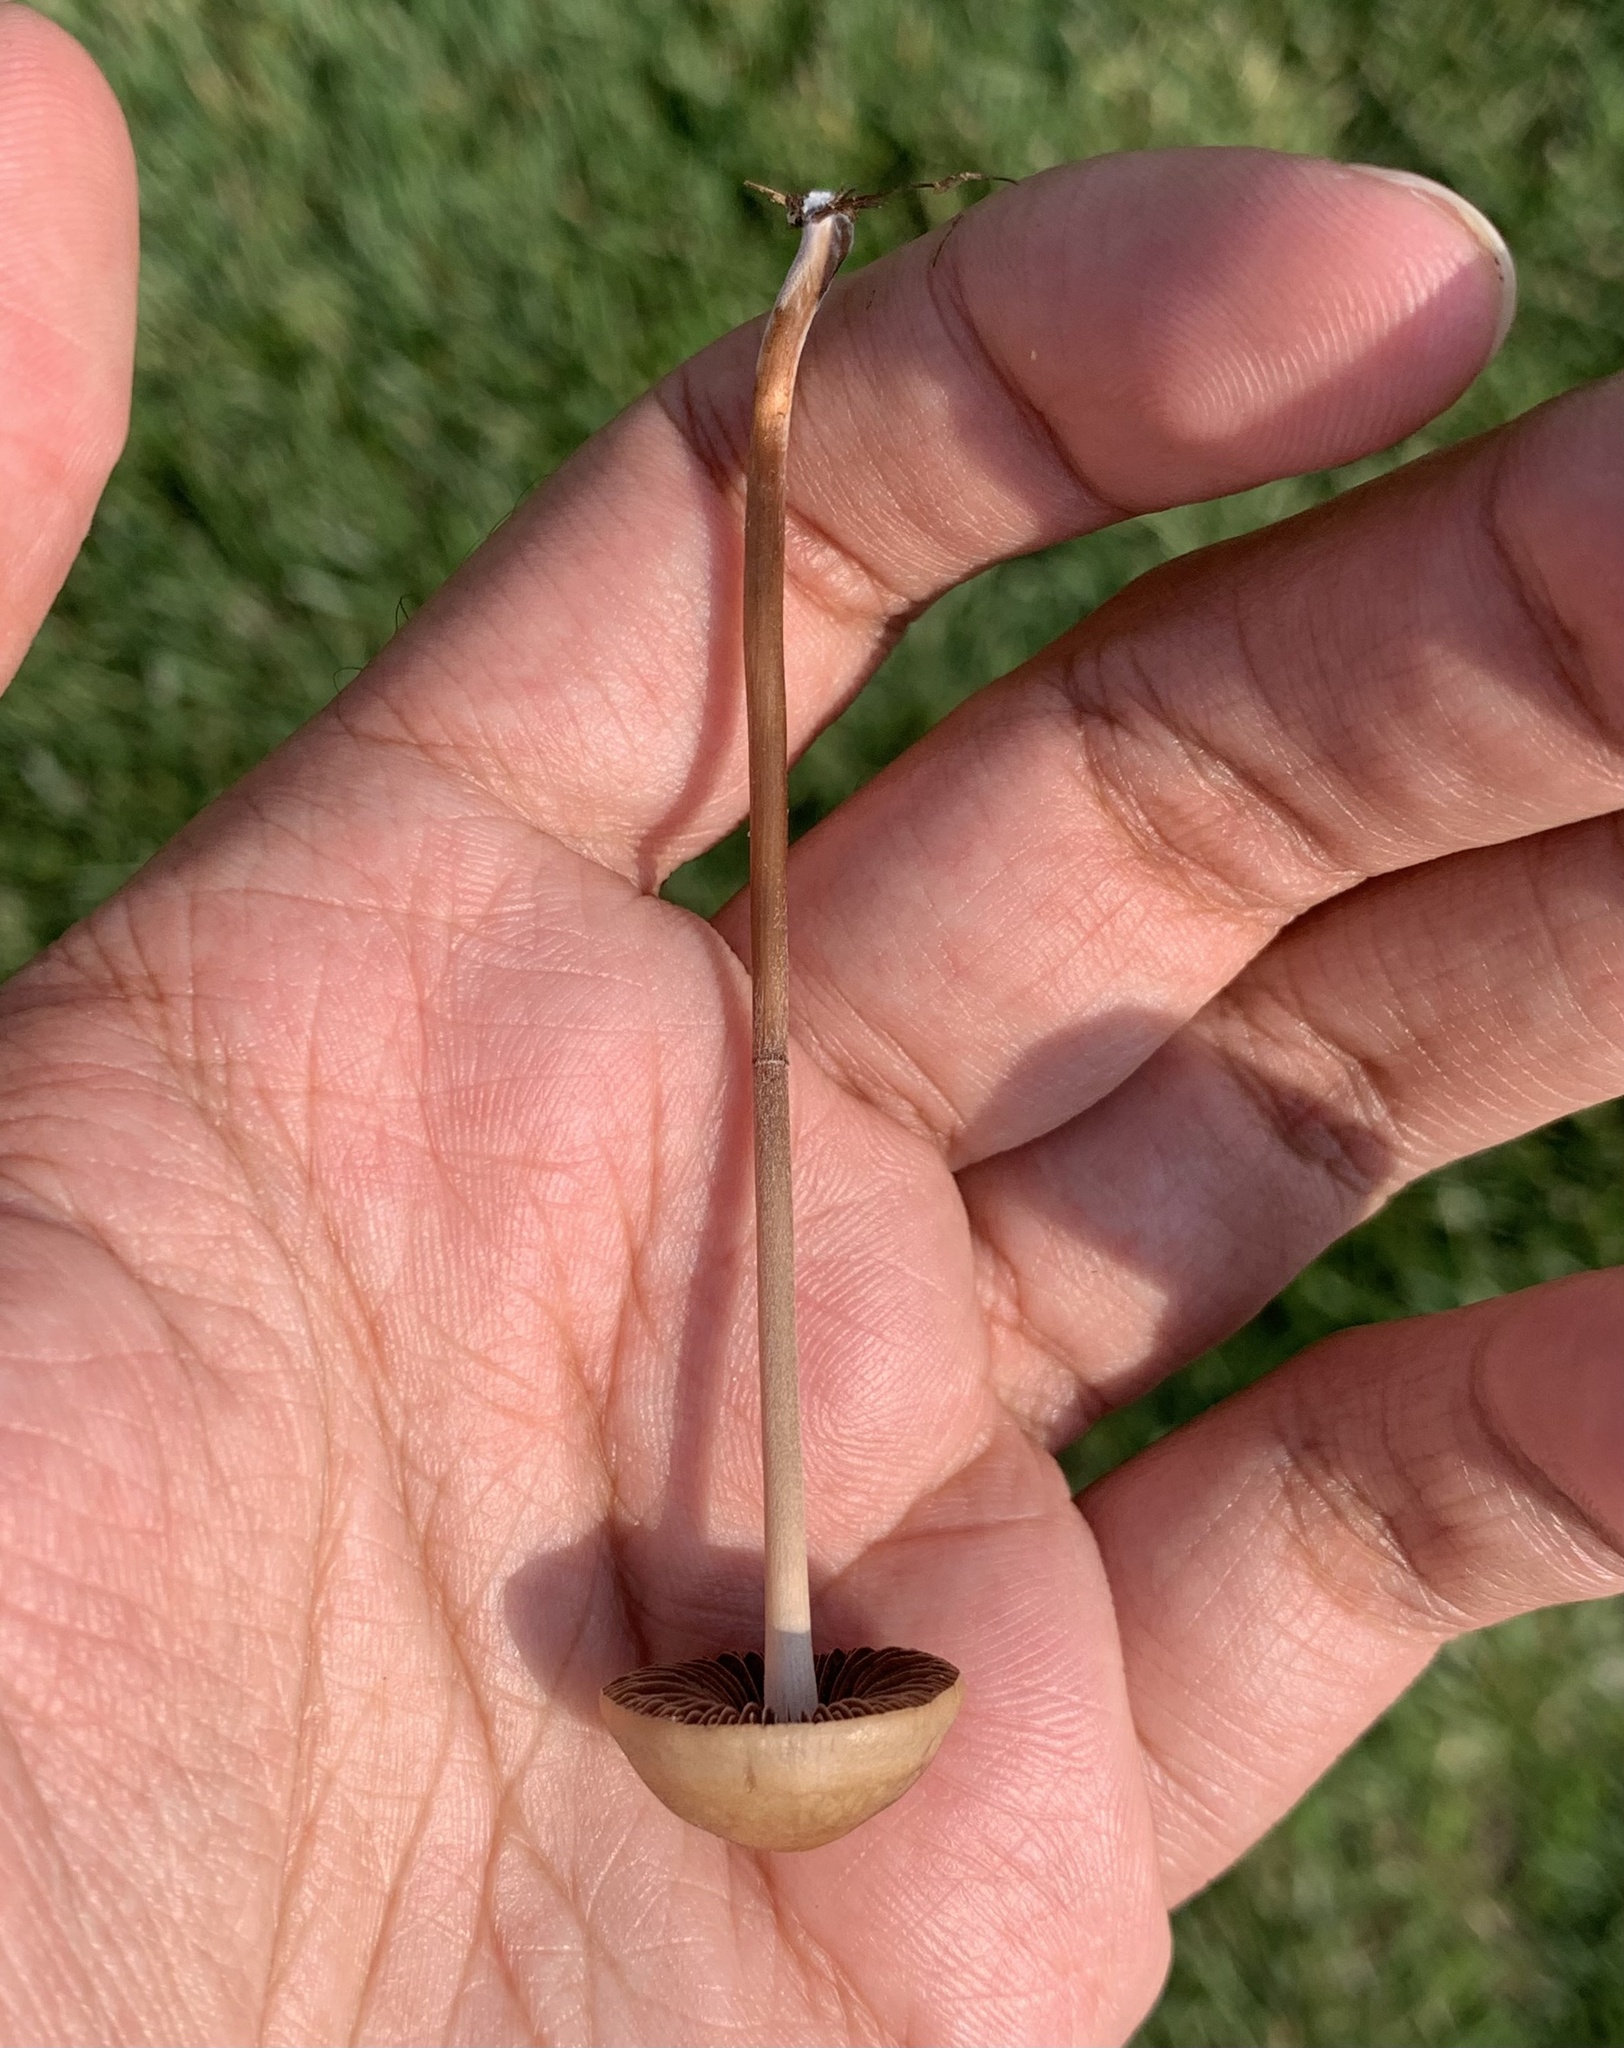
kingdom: Fungi
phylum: Basidiomycota
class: Agaricomycetes
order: Agaricales
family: Bolbitiaceae
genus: Panaeolina
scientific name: Panaeolina foenisecii
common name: Brown hay cap
